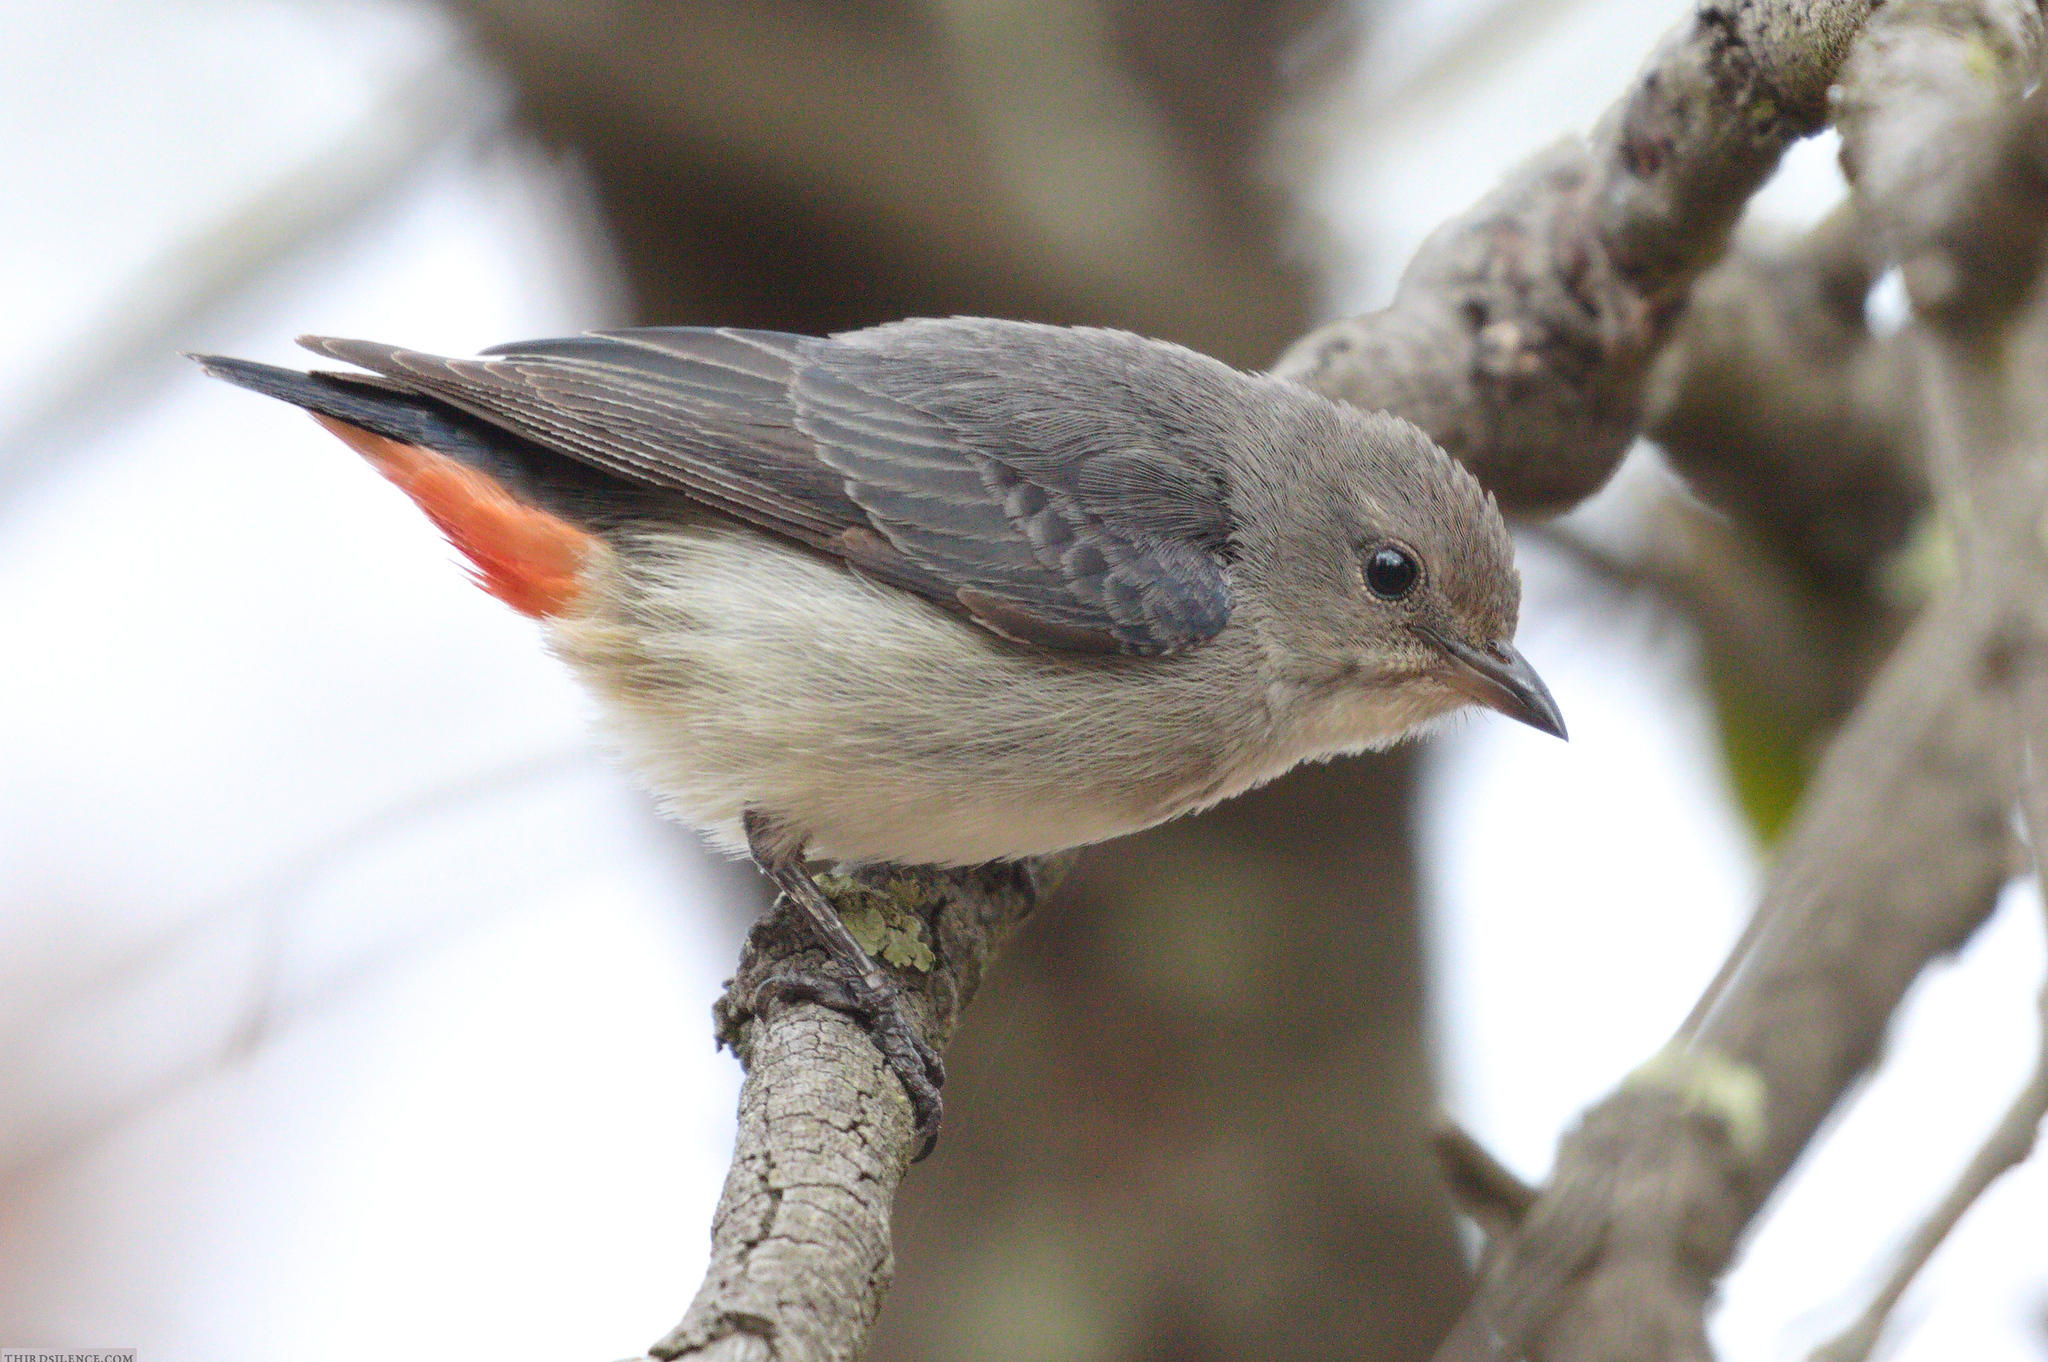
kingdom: Animalia
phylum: Chordata
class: Aves
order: Passeriformes
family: Dicaeidae
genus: Dicaeum
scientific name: Dicaeum hirundinaceum
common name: Mistletoebird
